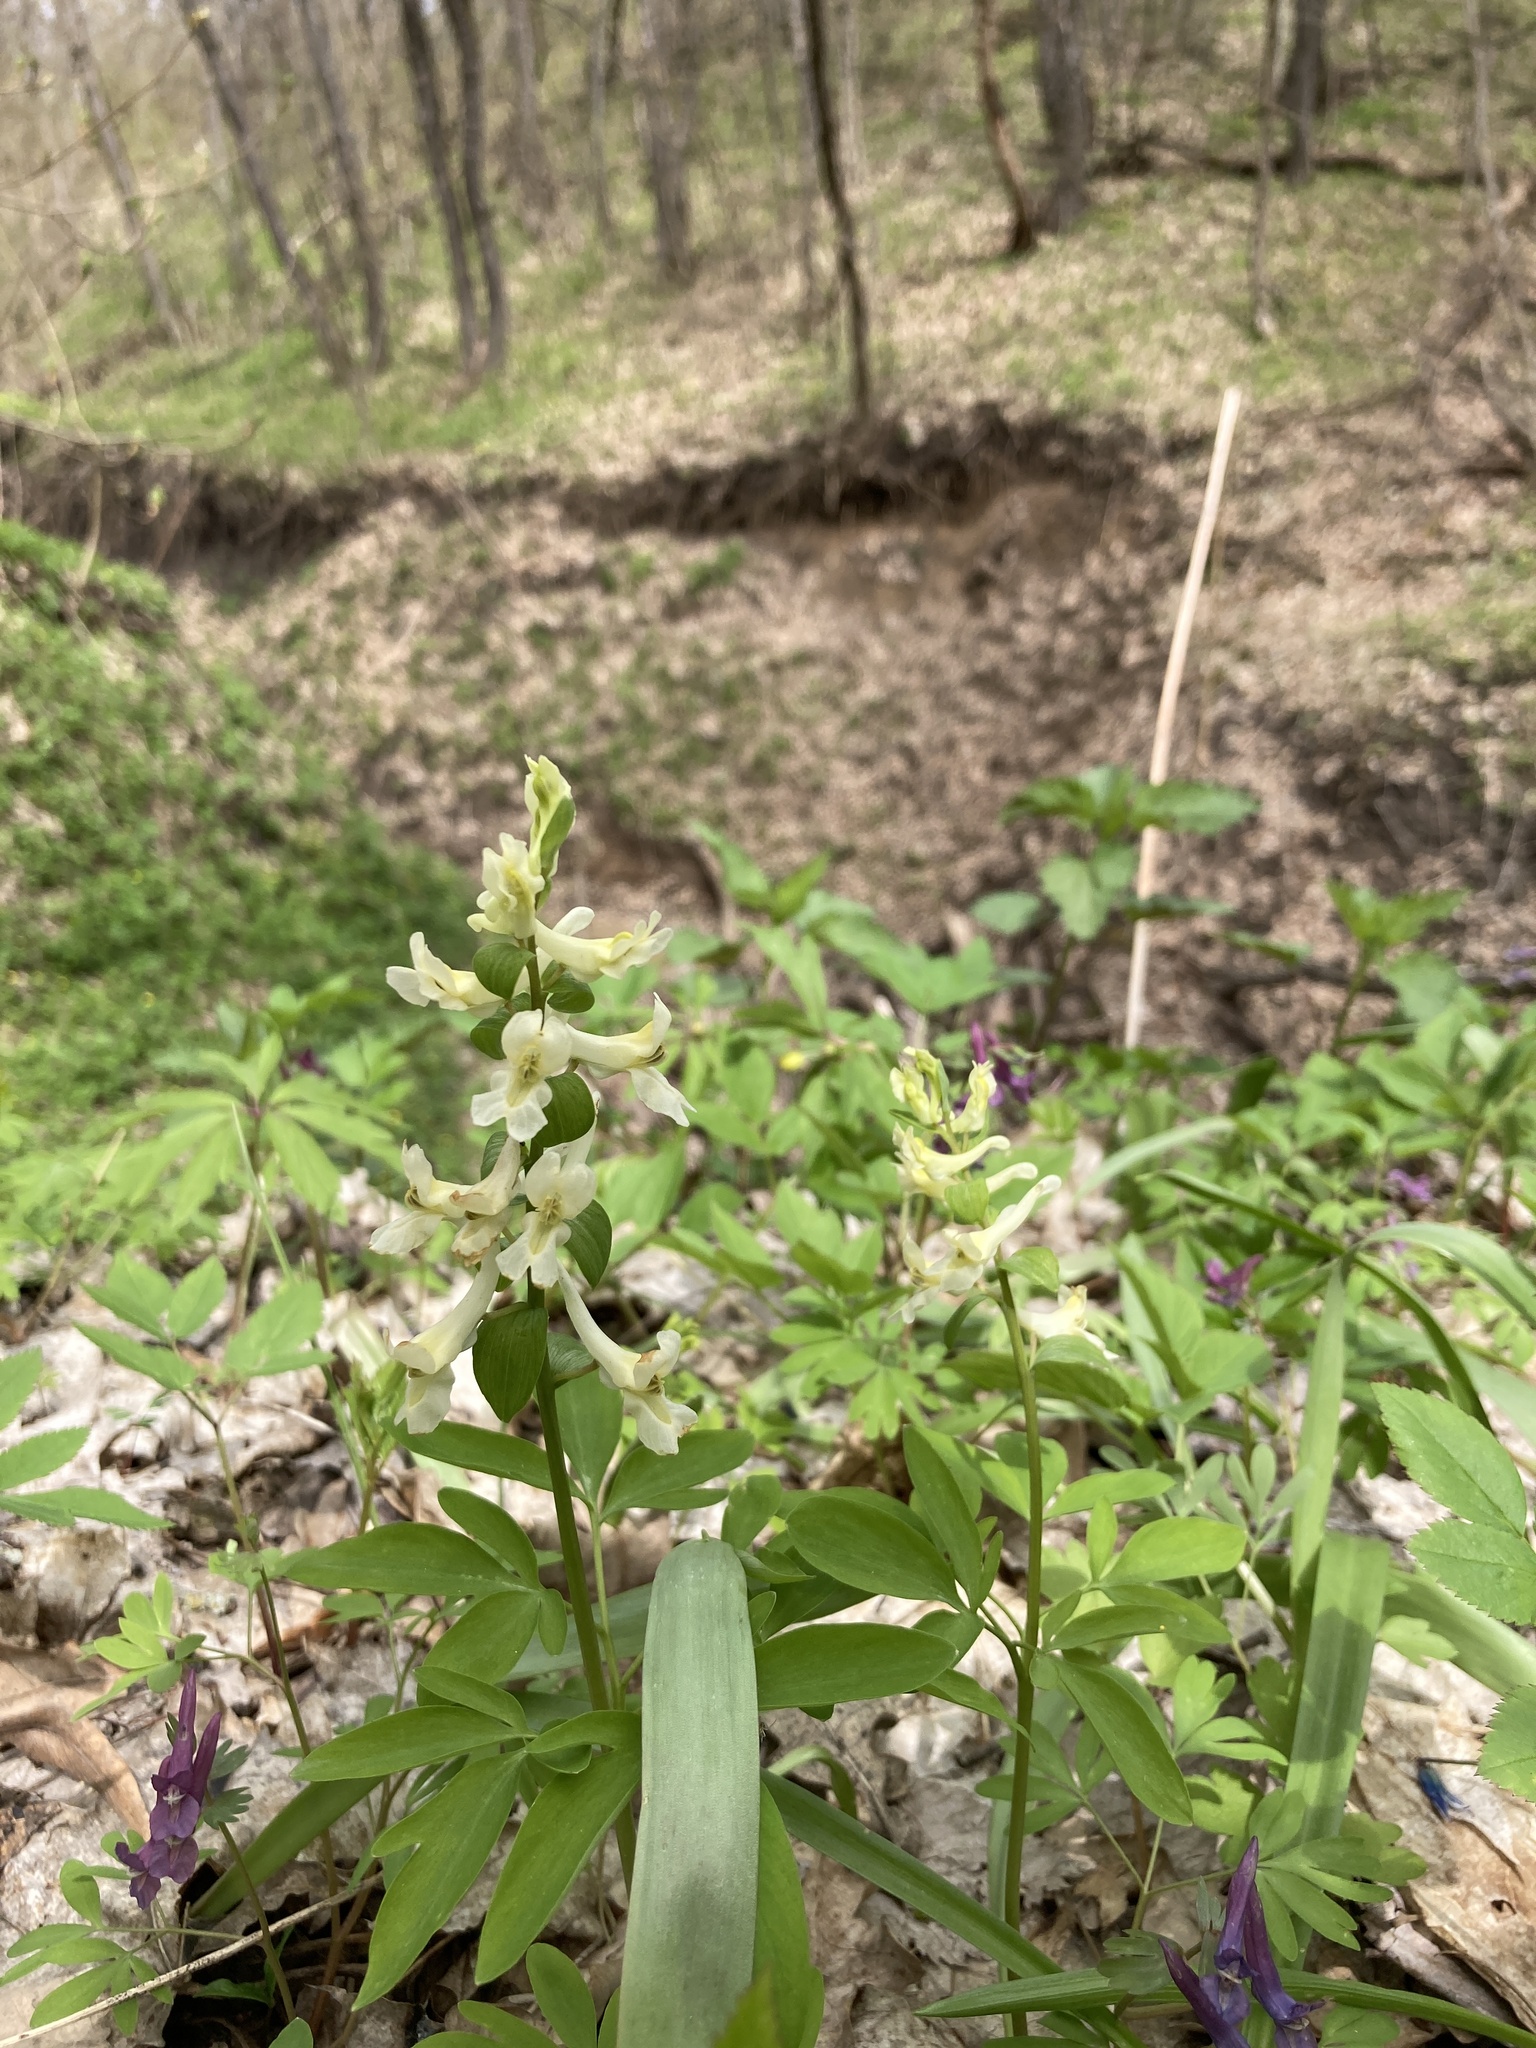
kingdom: Plantae
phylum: Tracheophyta
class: Magnoliopsida
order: Ranunculales
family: Papaveraceae
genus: Corydalis
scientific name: Corydalis cava
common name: Hollowroot
